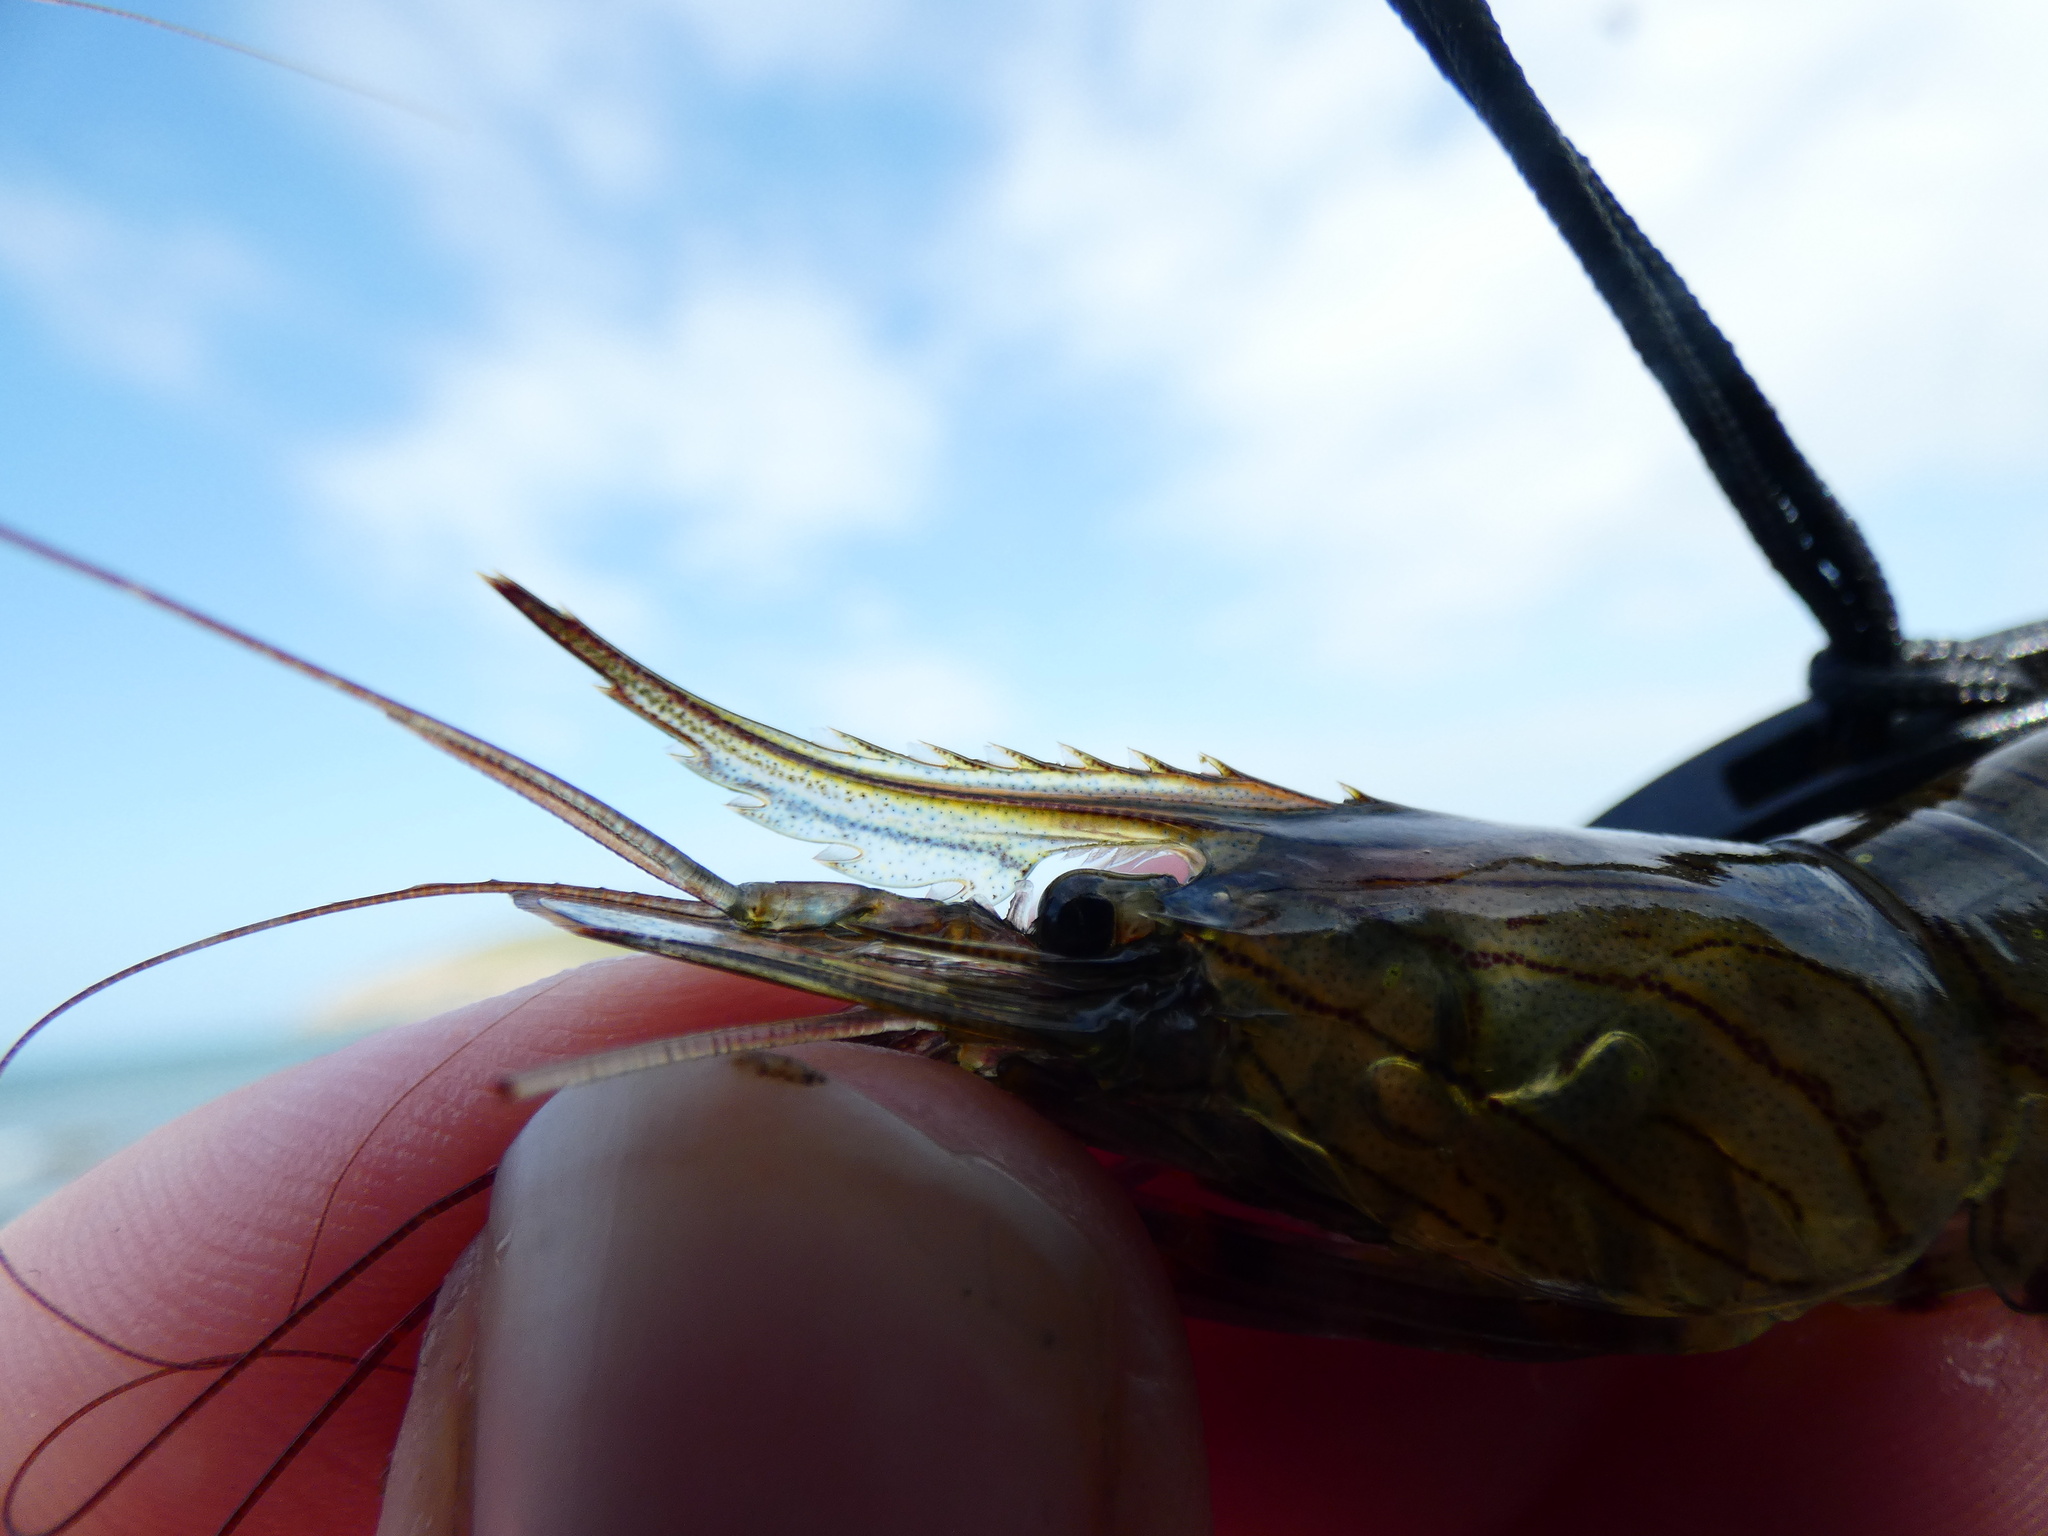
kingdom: Animalia
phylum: Arthropoda
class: Malacostraca
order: Decapoda
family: Palaemonidae
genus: Palaemon
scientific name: Palaemon serratus
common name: Common prawn
